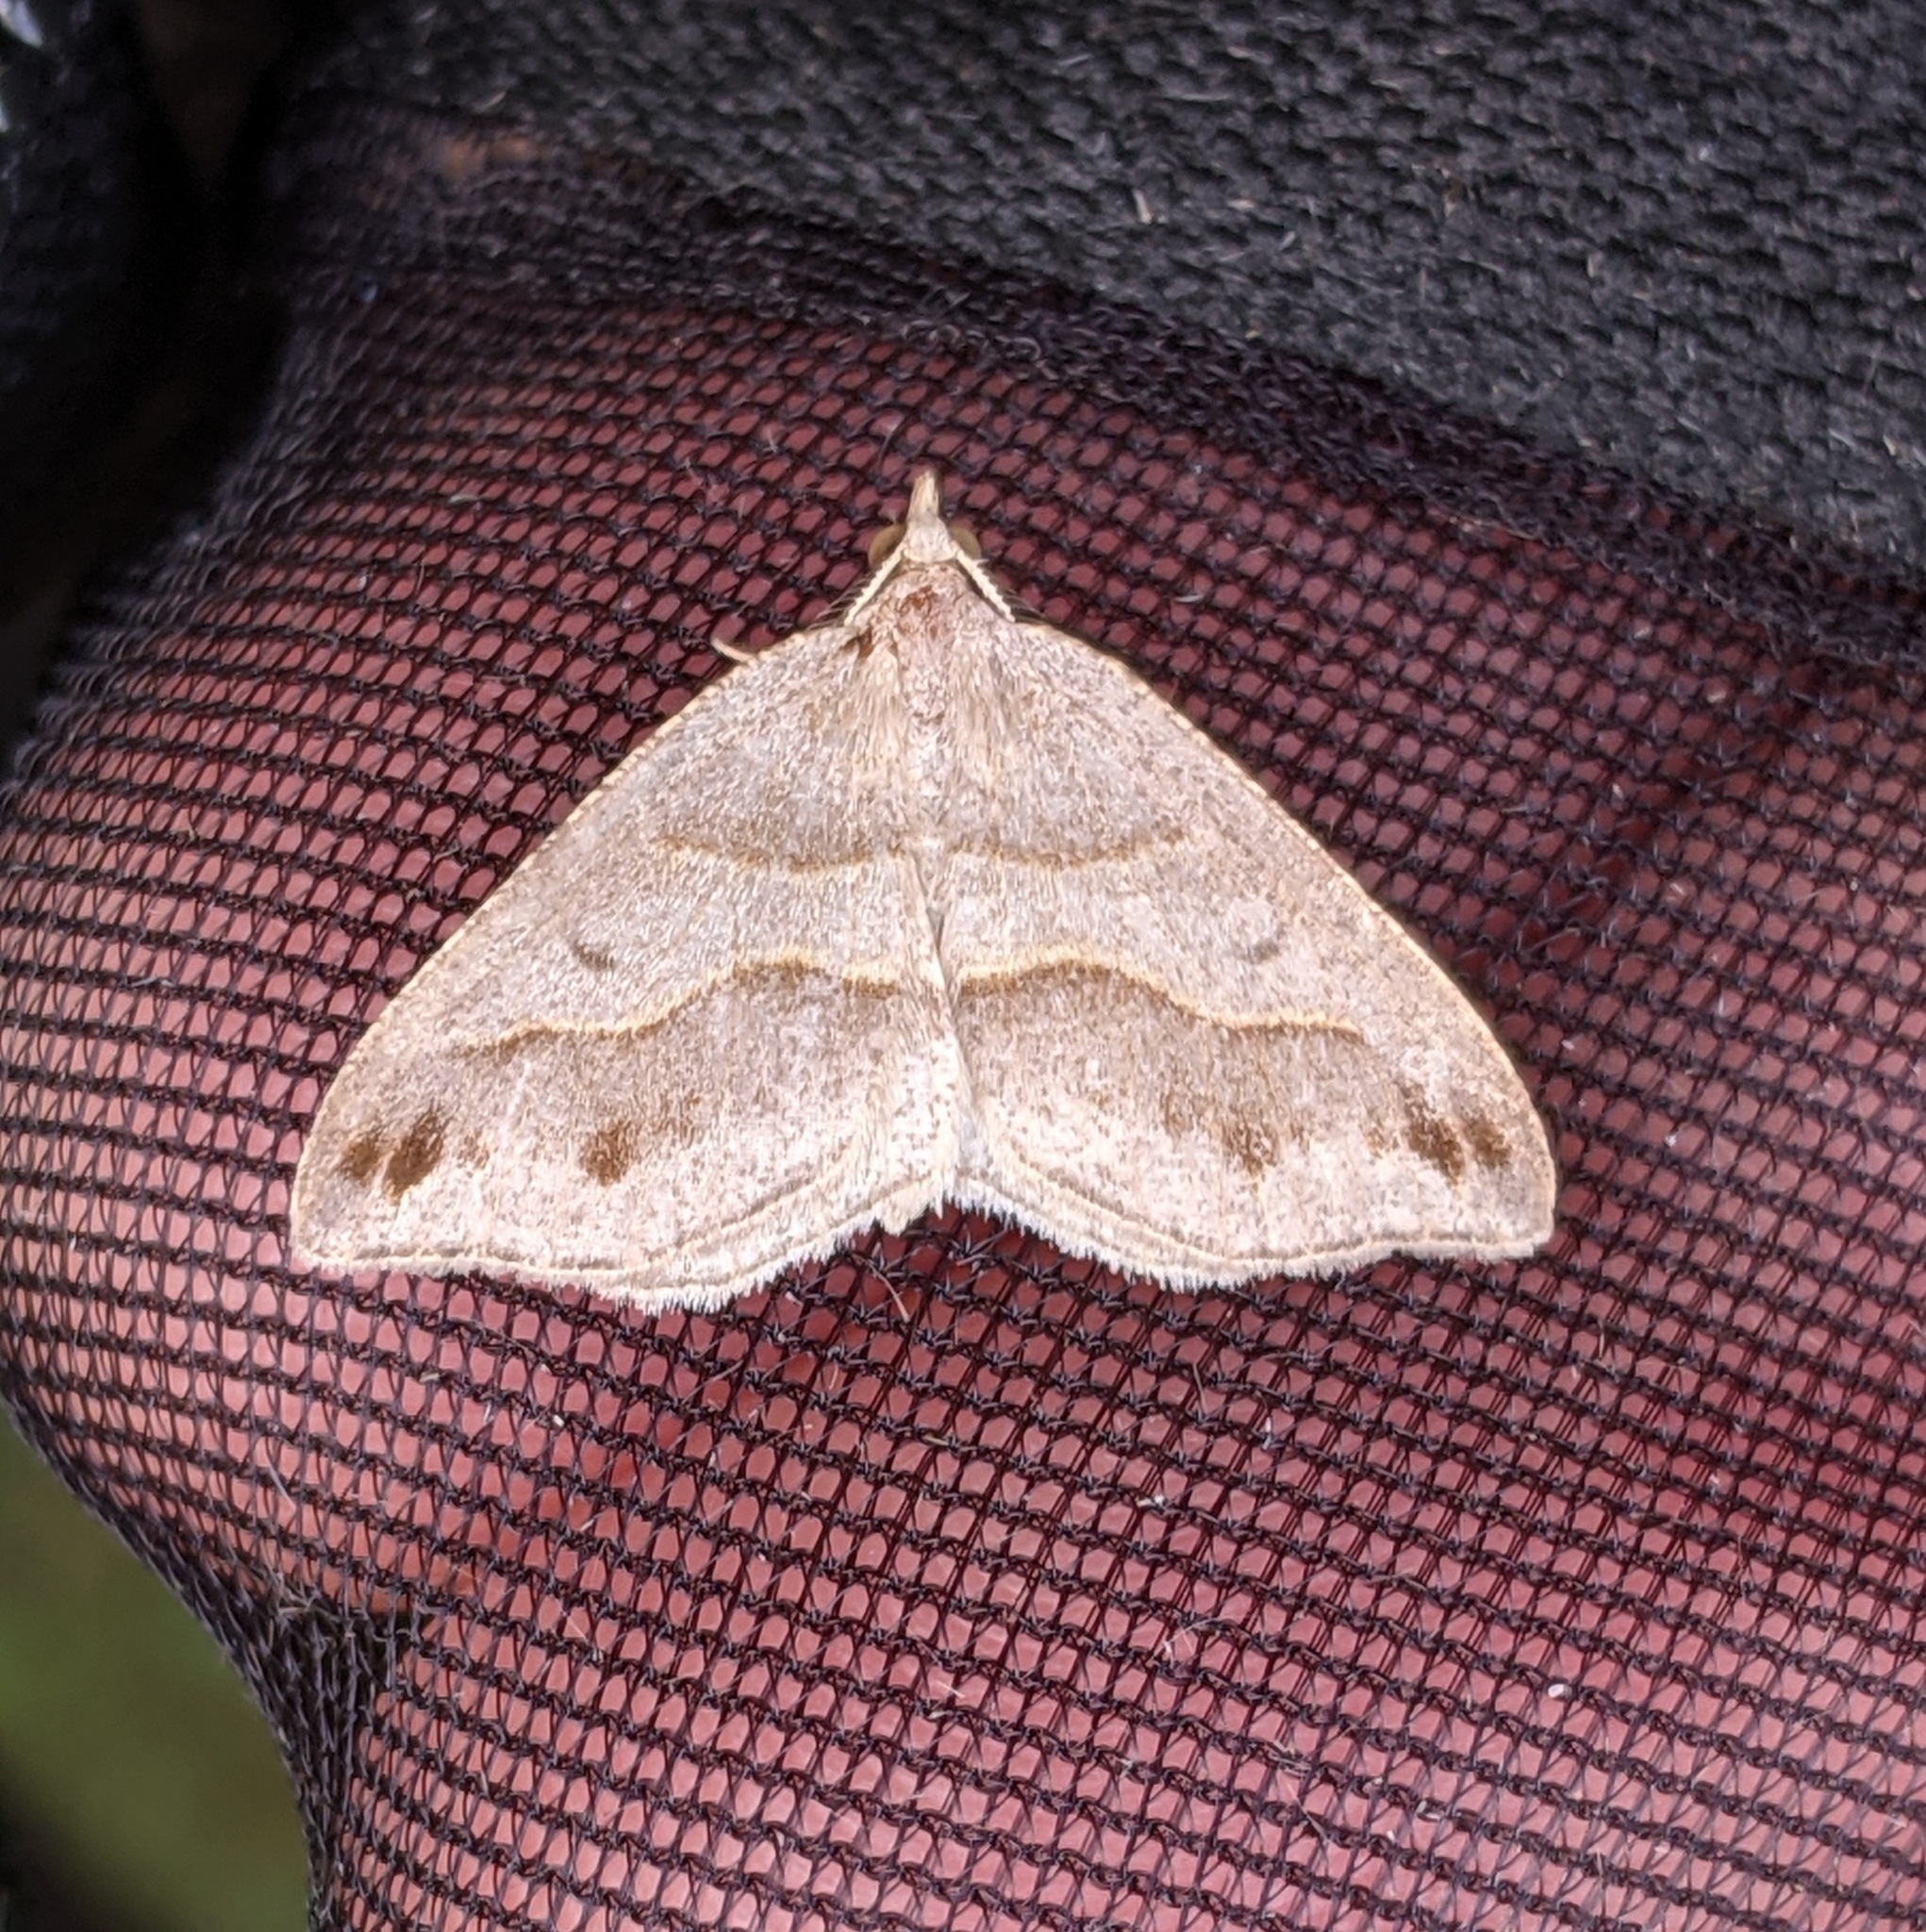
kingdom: Animalia
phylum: Arthropoda
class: Insecta
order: Lepidoptera
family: Geometridae
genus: Macaria
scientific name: Macaria lorquinaria
